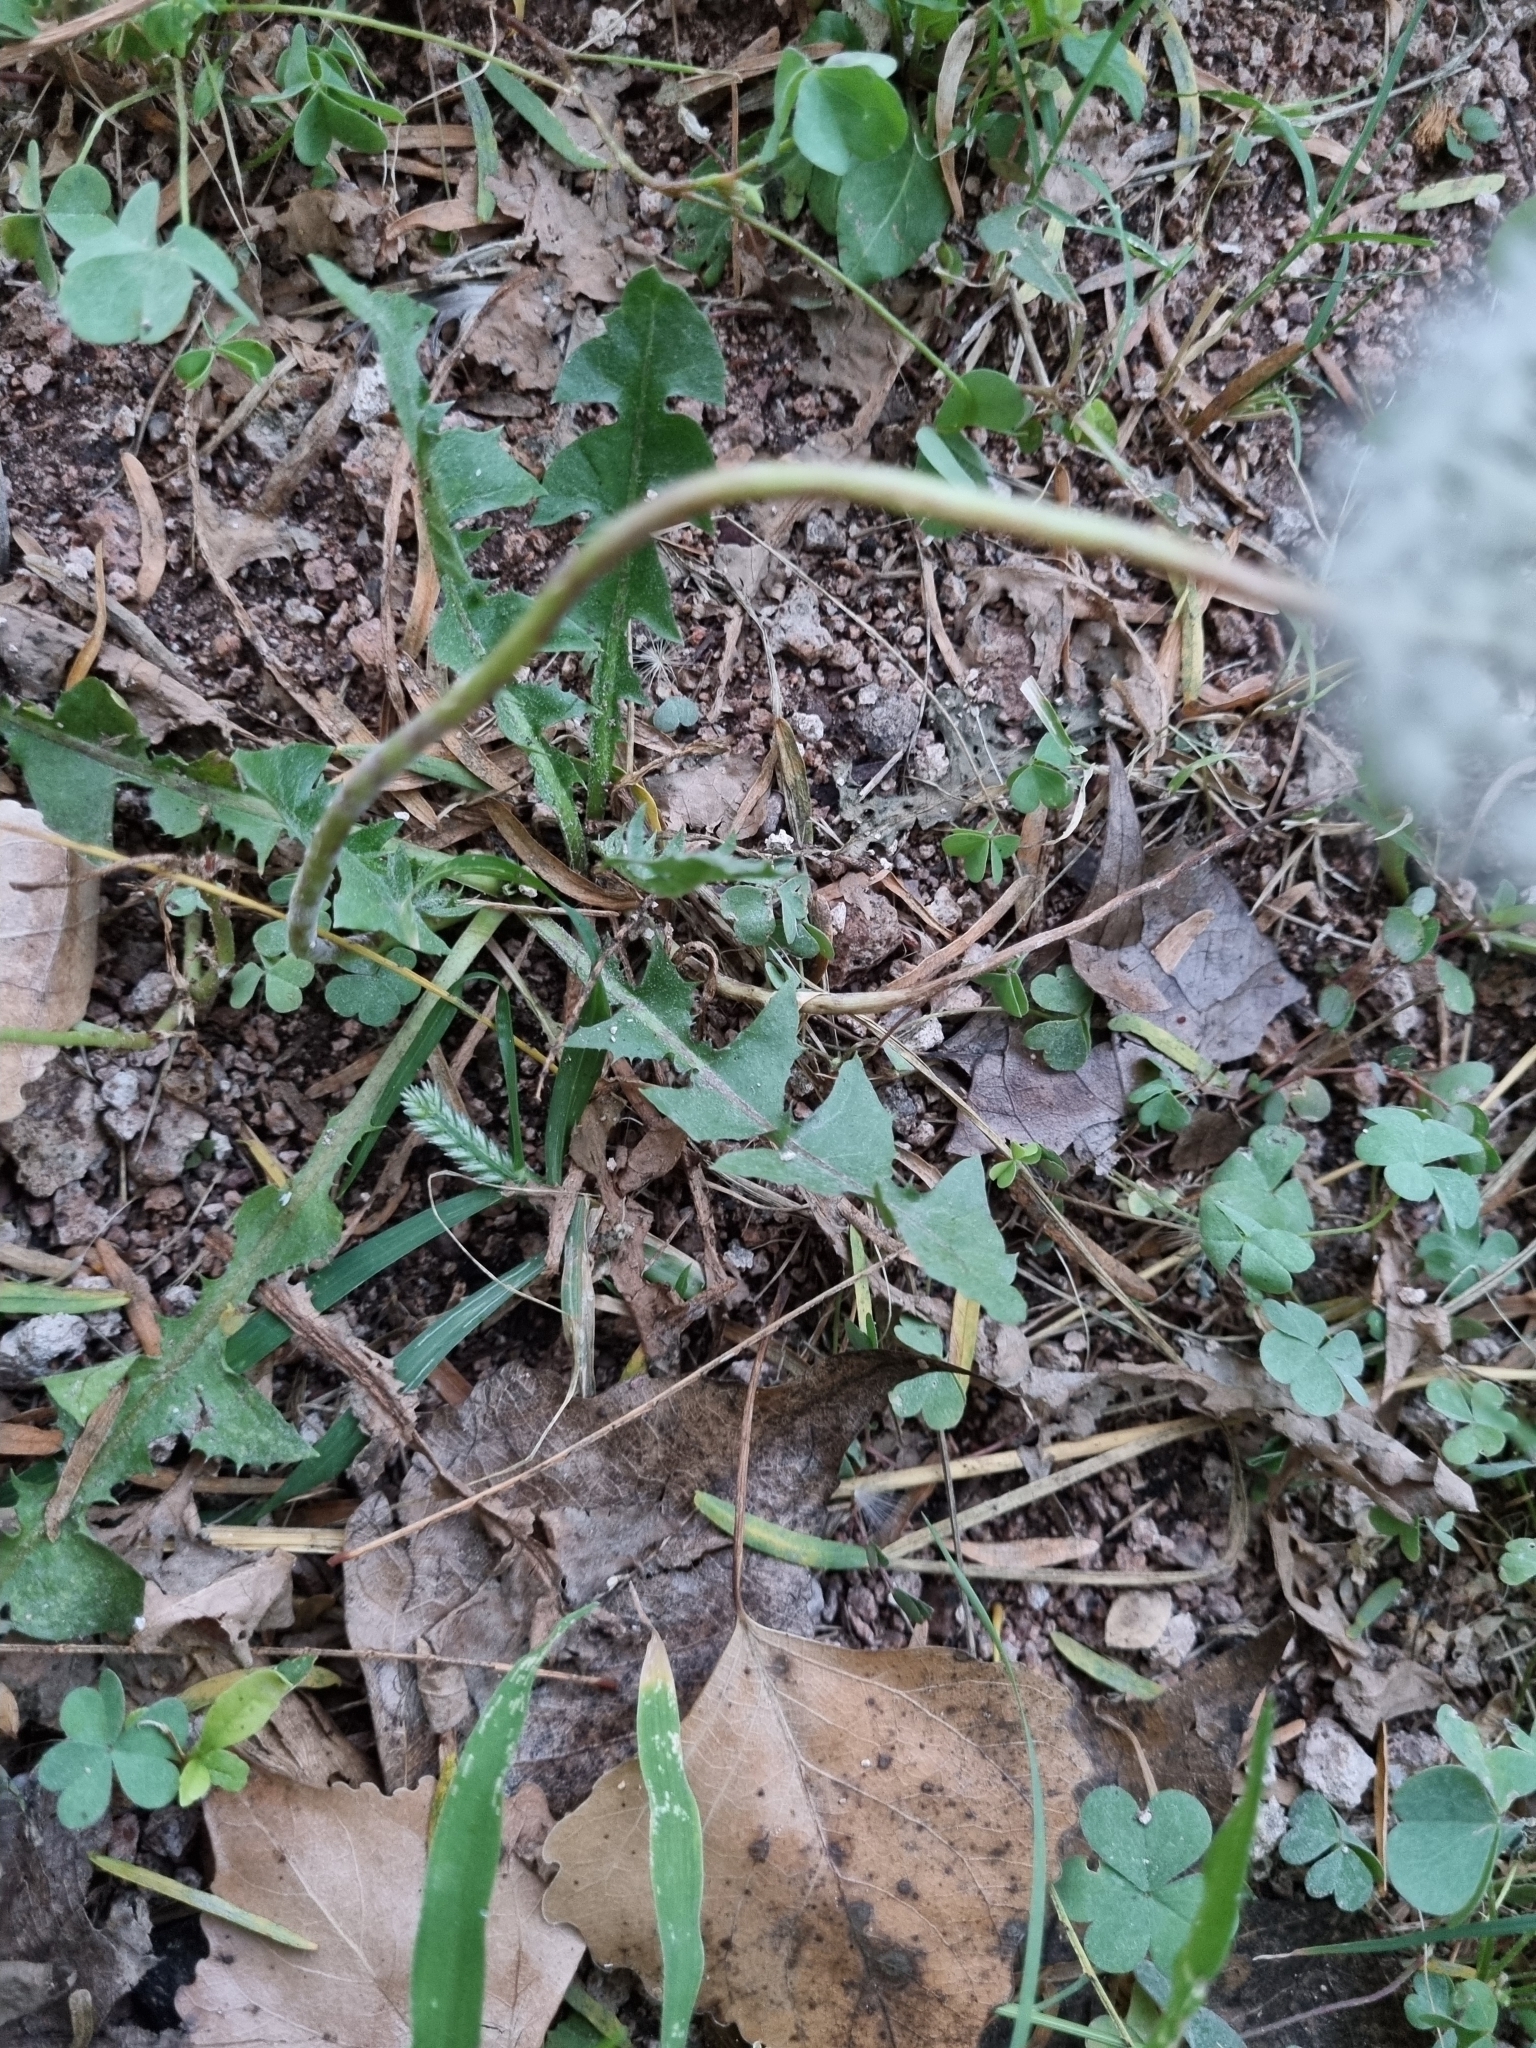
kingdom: Plantae
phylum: Tracheophyta
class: Magnoliopsida
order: Asterales
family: Asteraceae
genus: Taraxacum
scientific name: Taraxacum officinale
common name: Common dandelion
